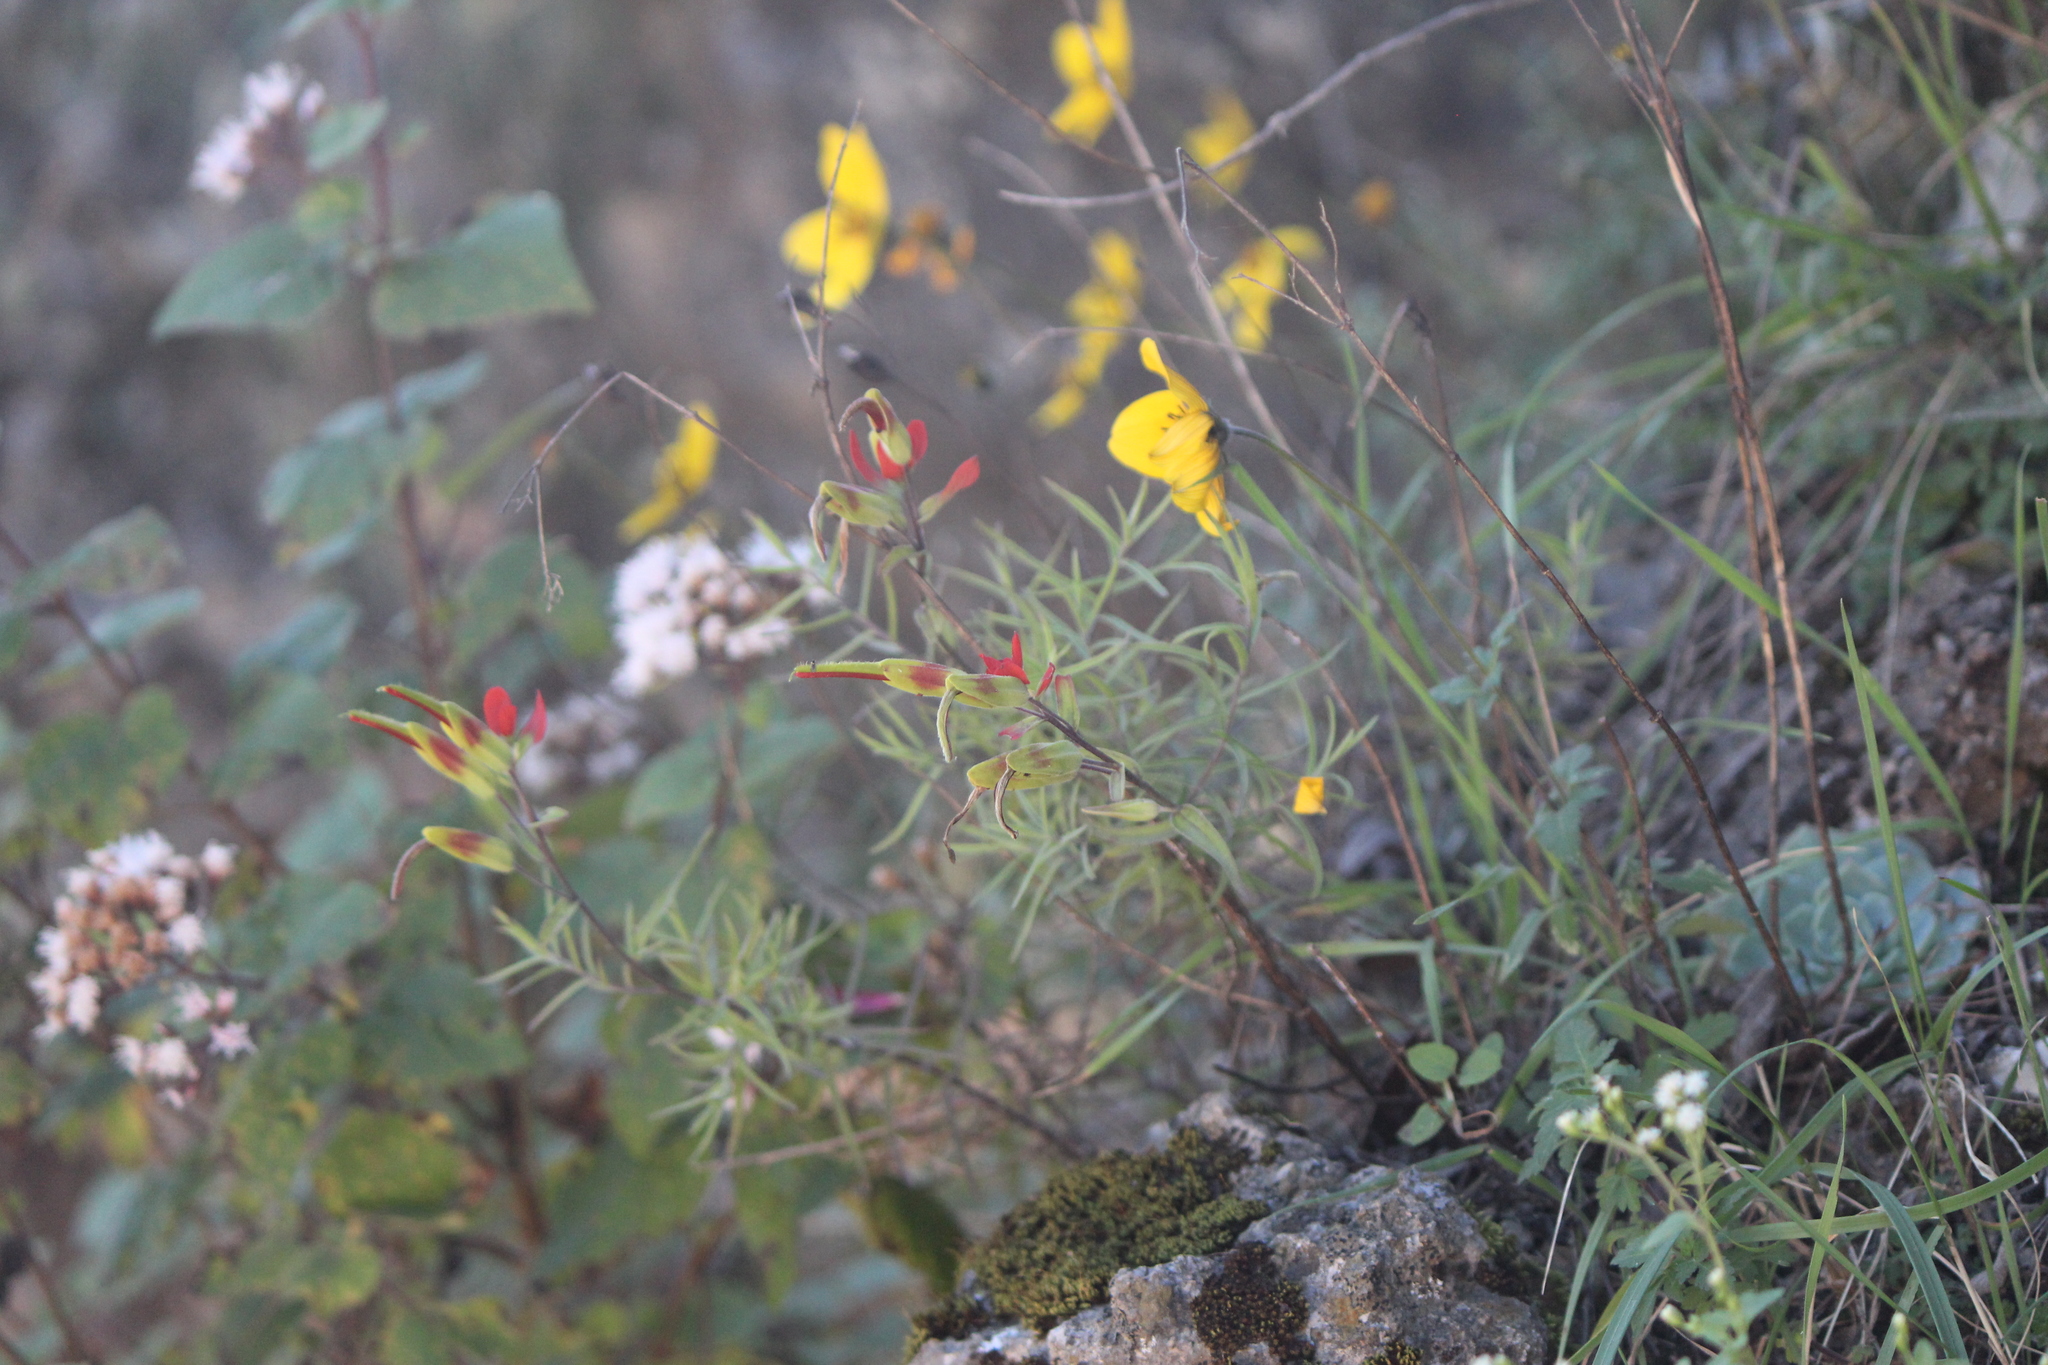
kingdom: Plantae
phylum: Tracheophyta
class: Magnoliopsida
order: Lamiales
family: Orobanchaceae
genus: Castilleja
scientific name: Castilleja integrifolia
